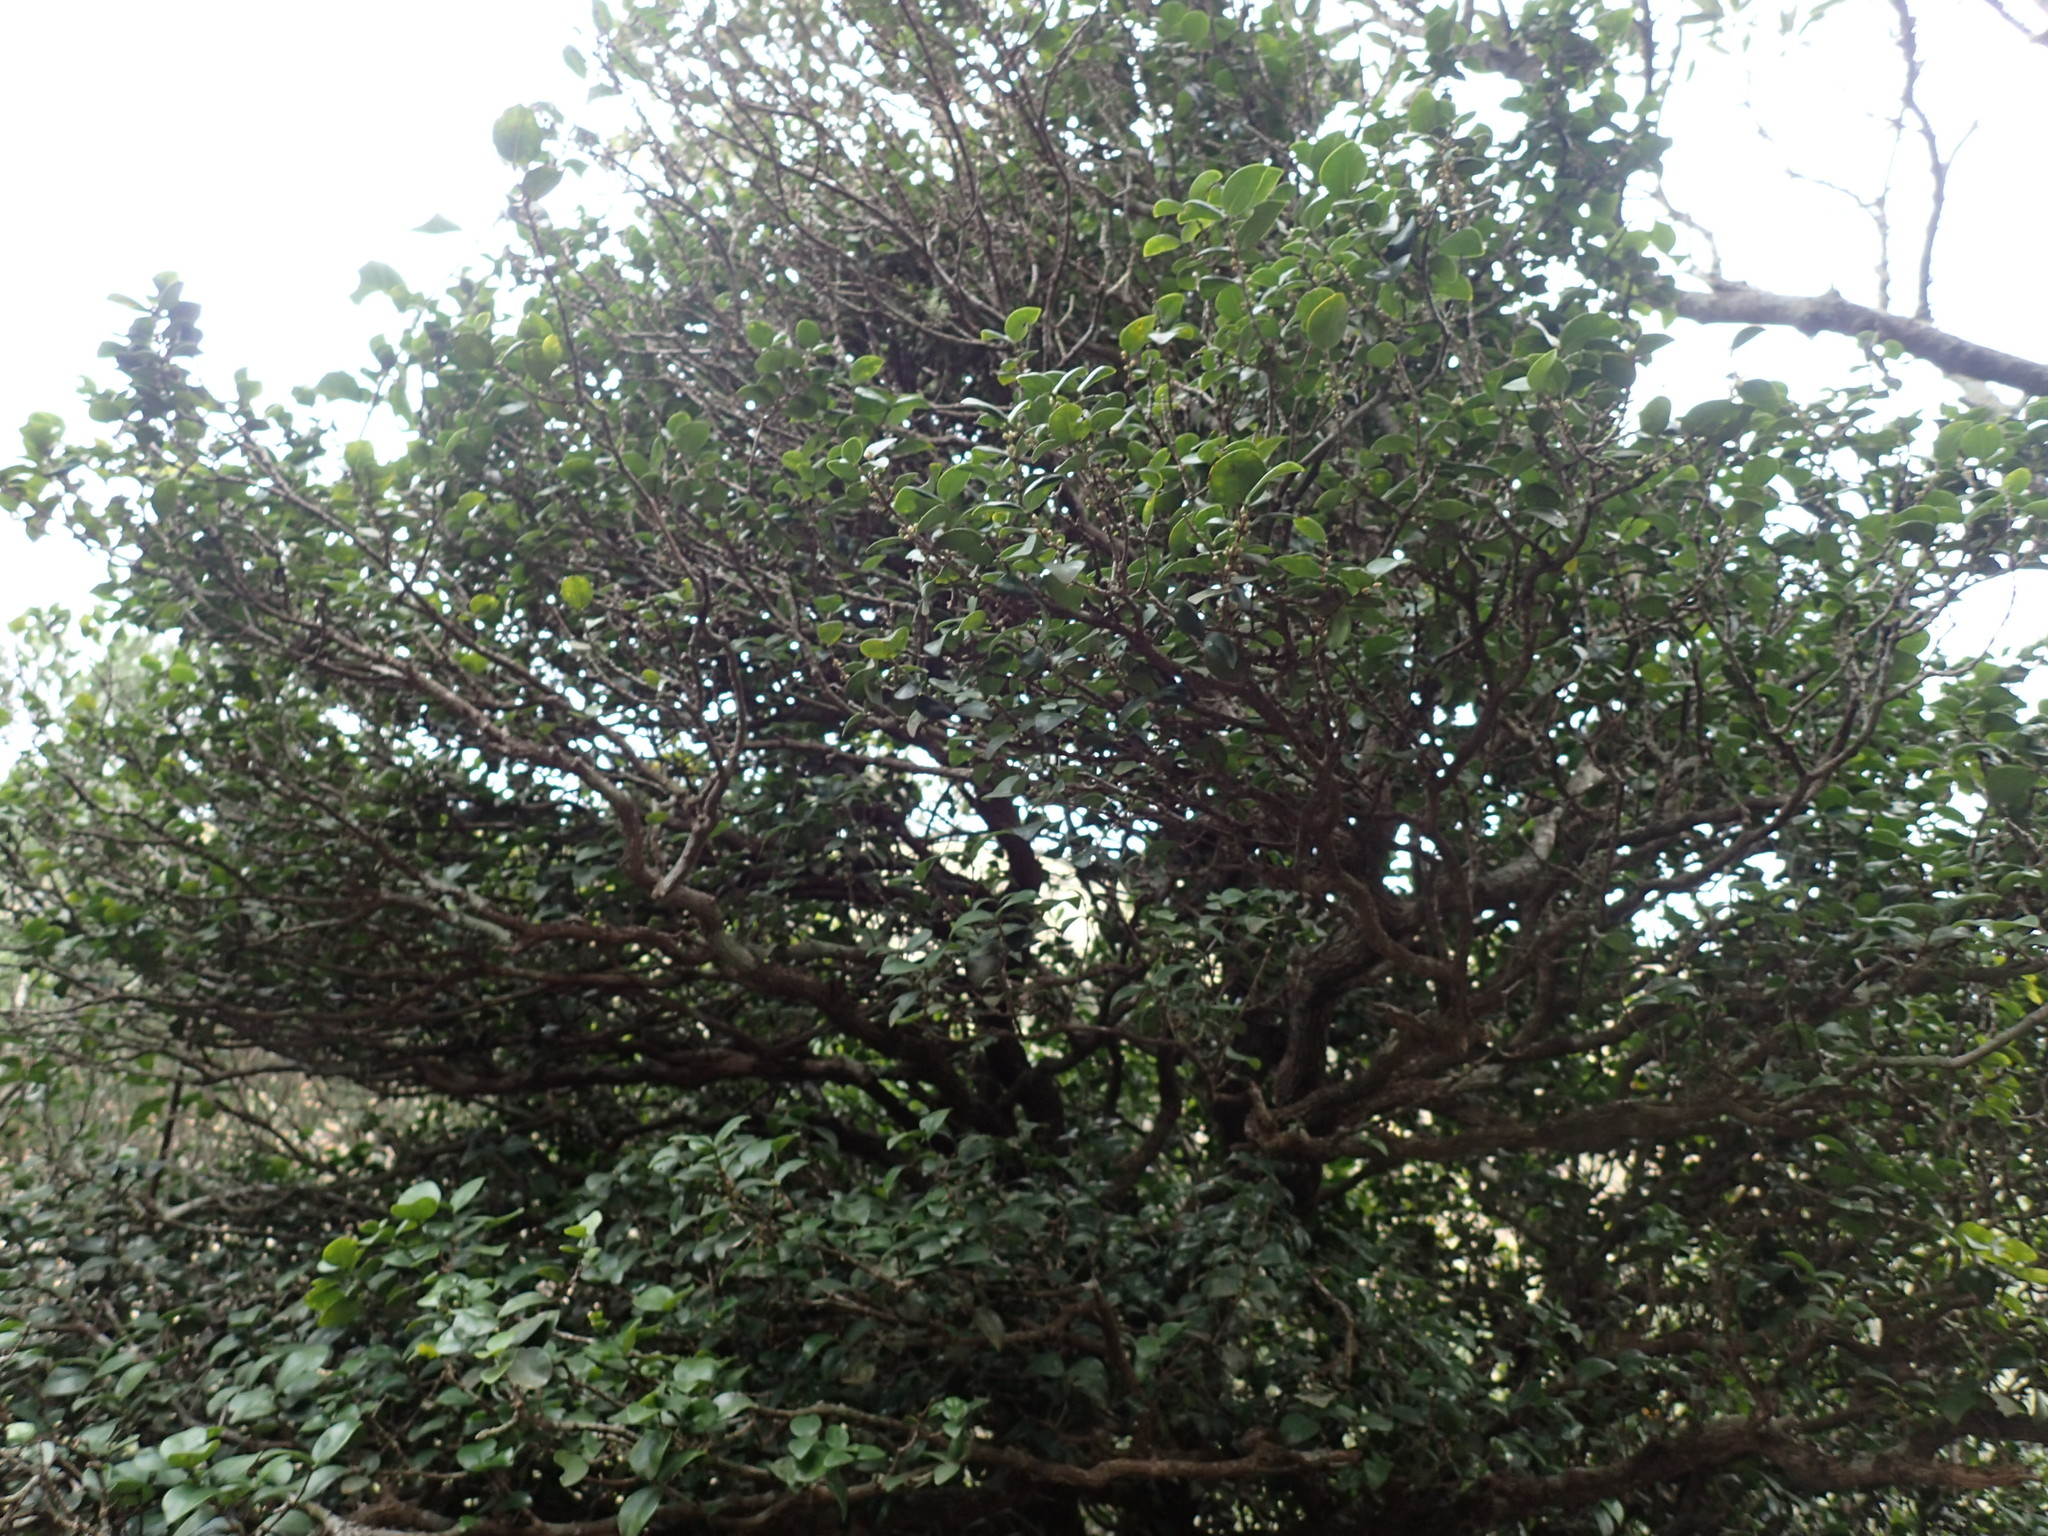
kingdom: Plantae
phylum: Tracheophyta
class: Magnoliopsida
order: Myrtales
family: Melastomataceae
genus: Memecylon
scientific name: Memecylon bachmannii
